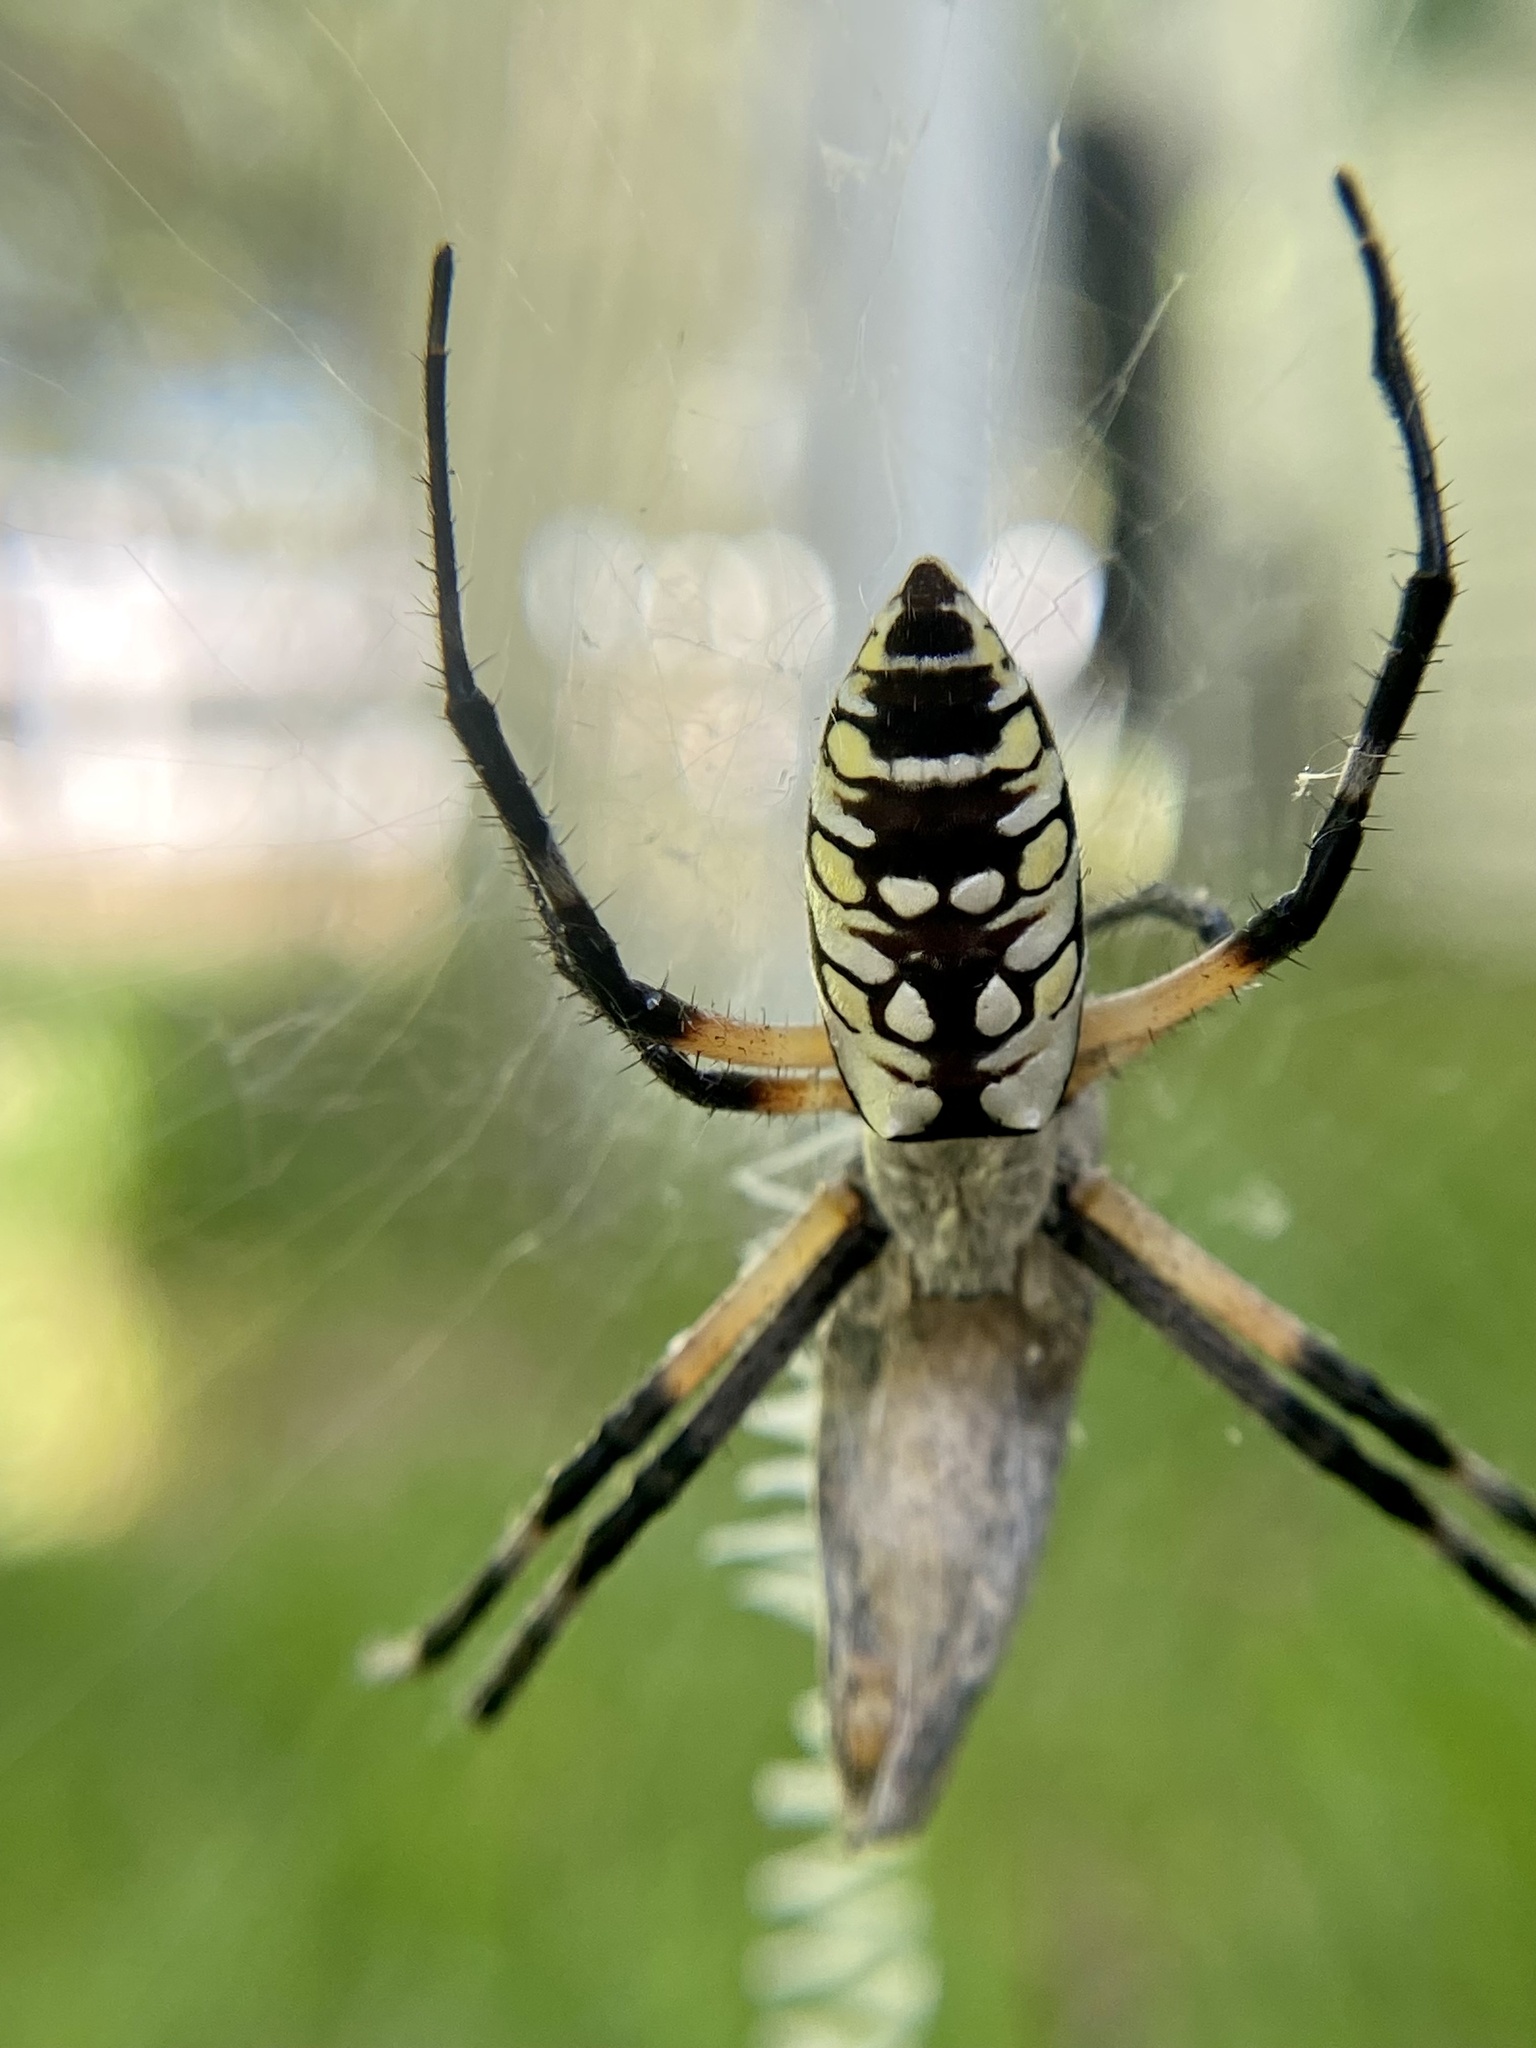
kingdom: Animalia
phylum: Arthropoda
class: Arachnida
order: Araneae
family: Araneidae
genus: Argiope
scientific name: Argiope aurantia
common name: Orb weavers
